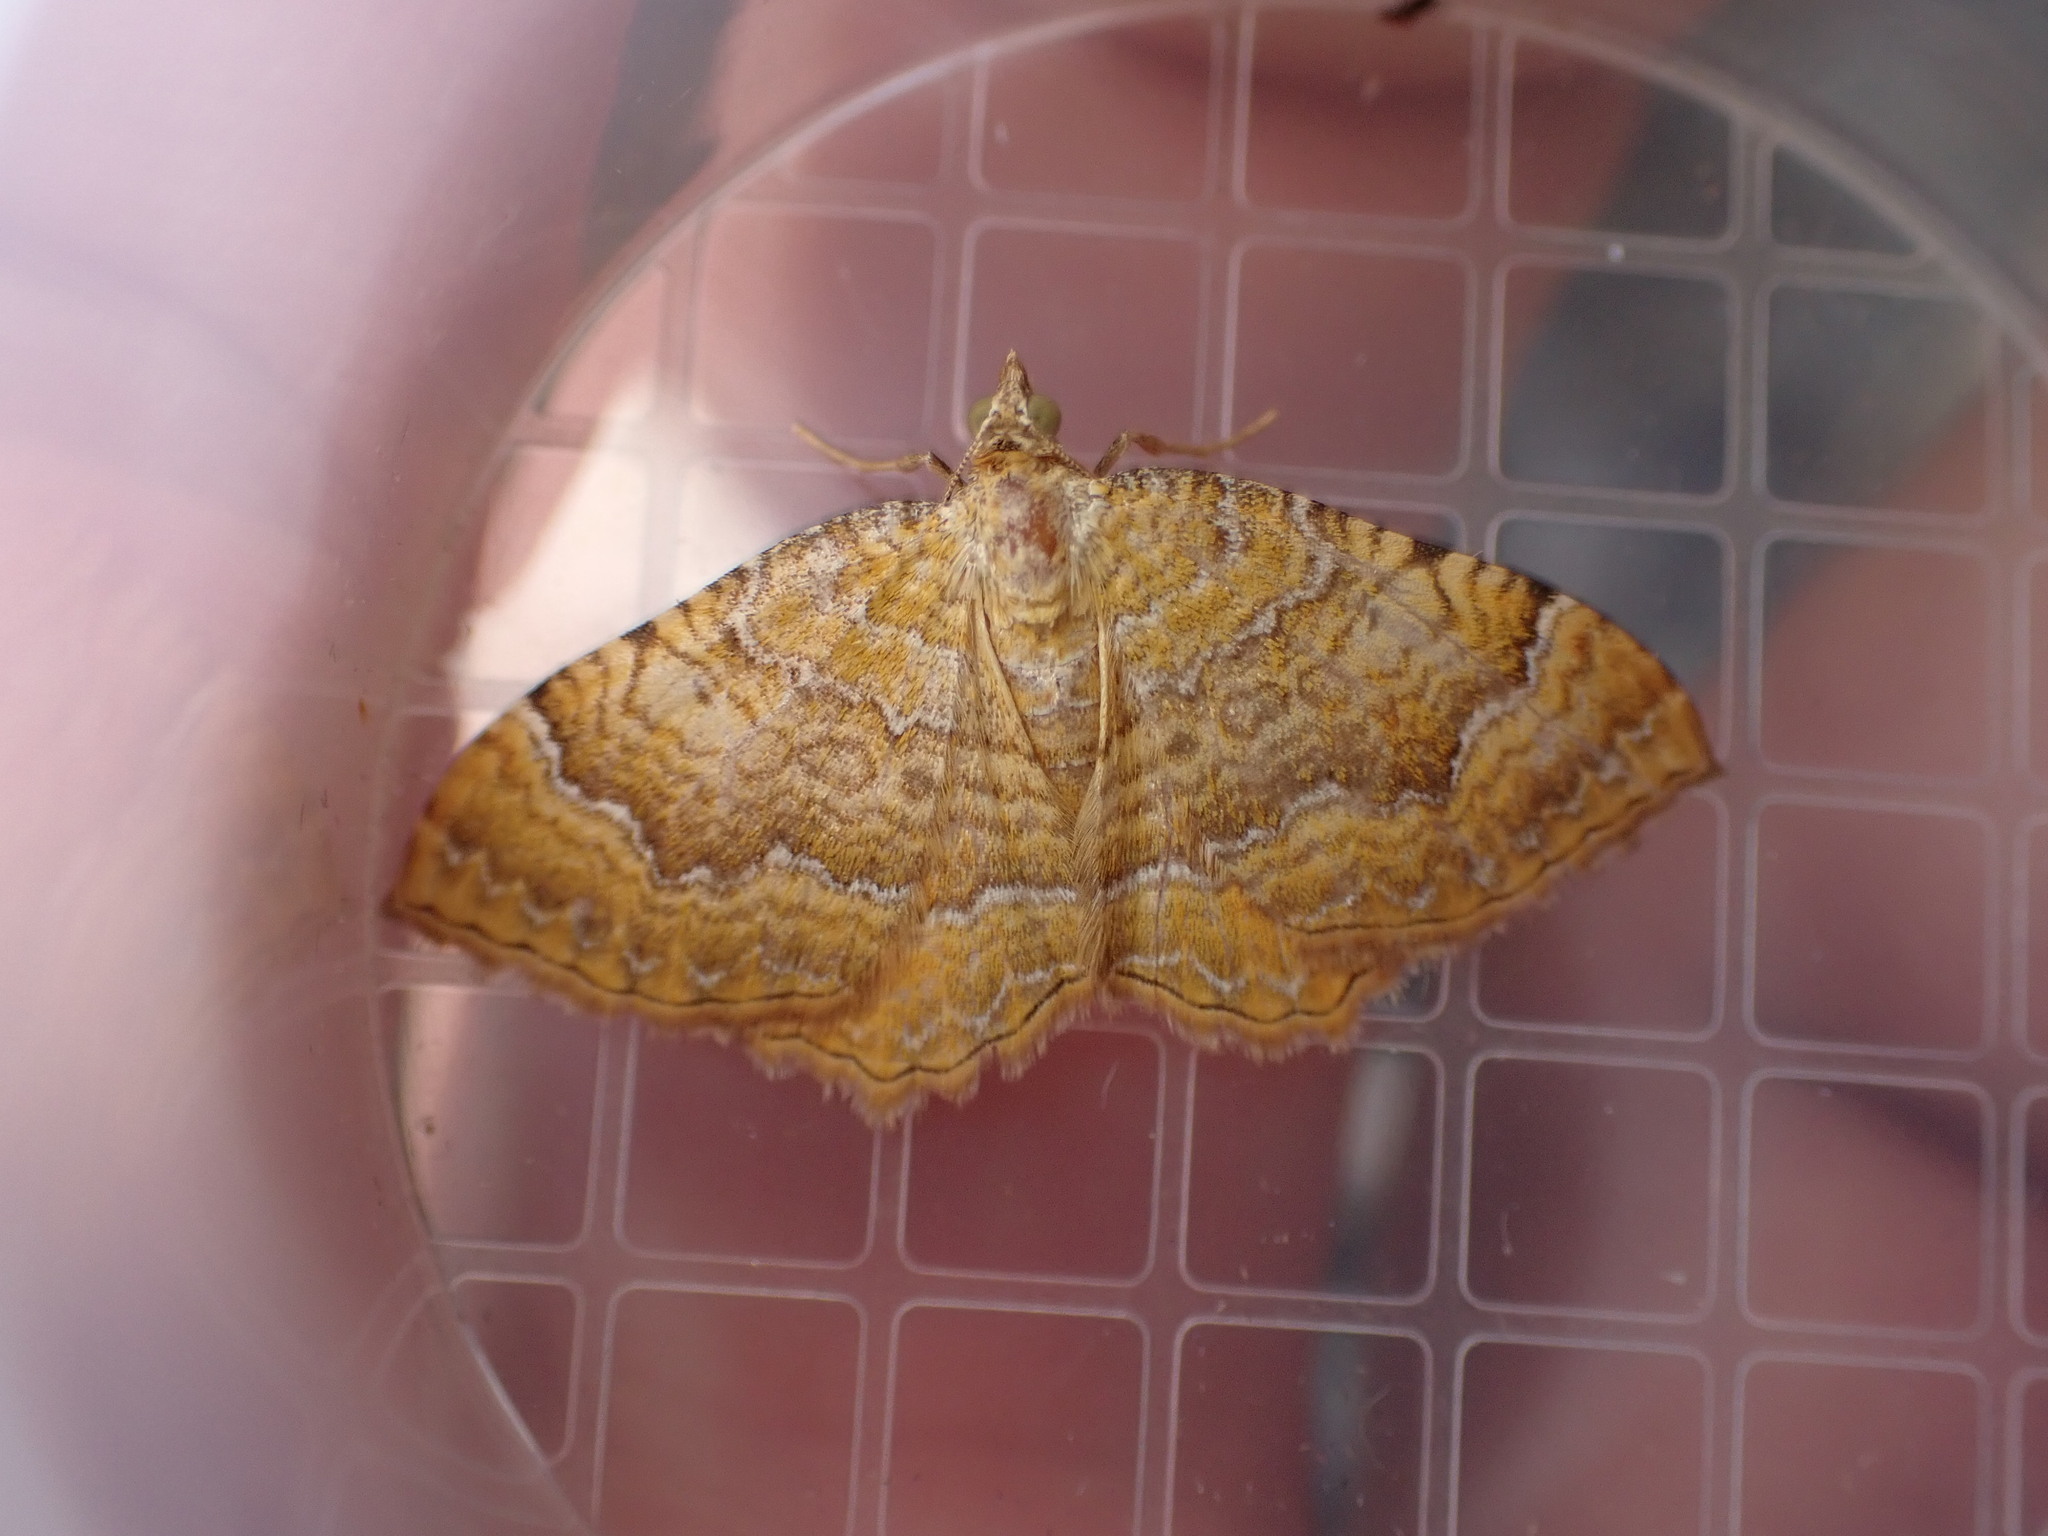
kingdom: Animalia
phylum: Arthropoda
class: Insecta
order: Lepidoptera
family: Geometridae
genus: Camptogramma
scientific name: Camptogramma bilineata
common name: Yellow shell
